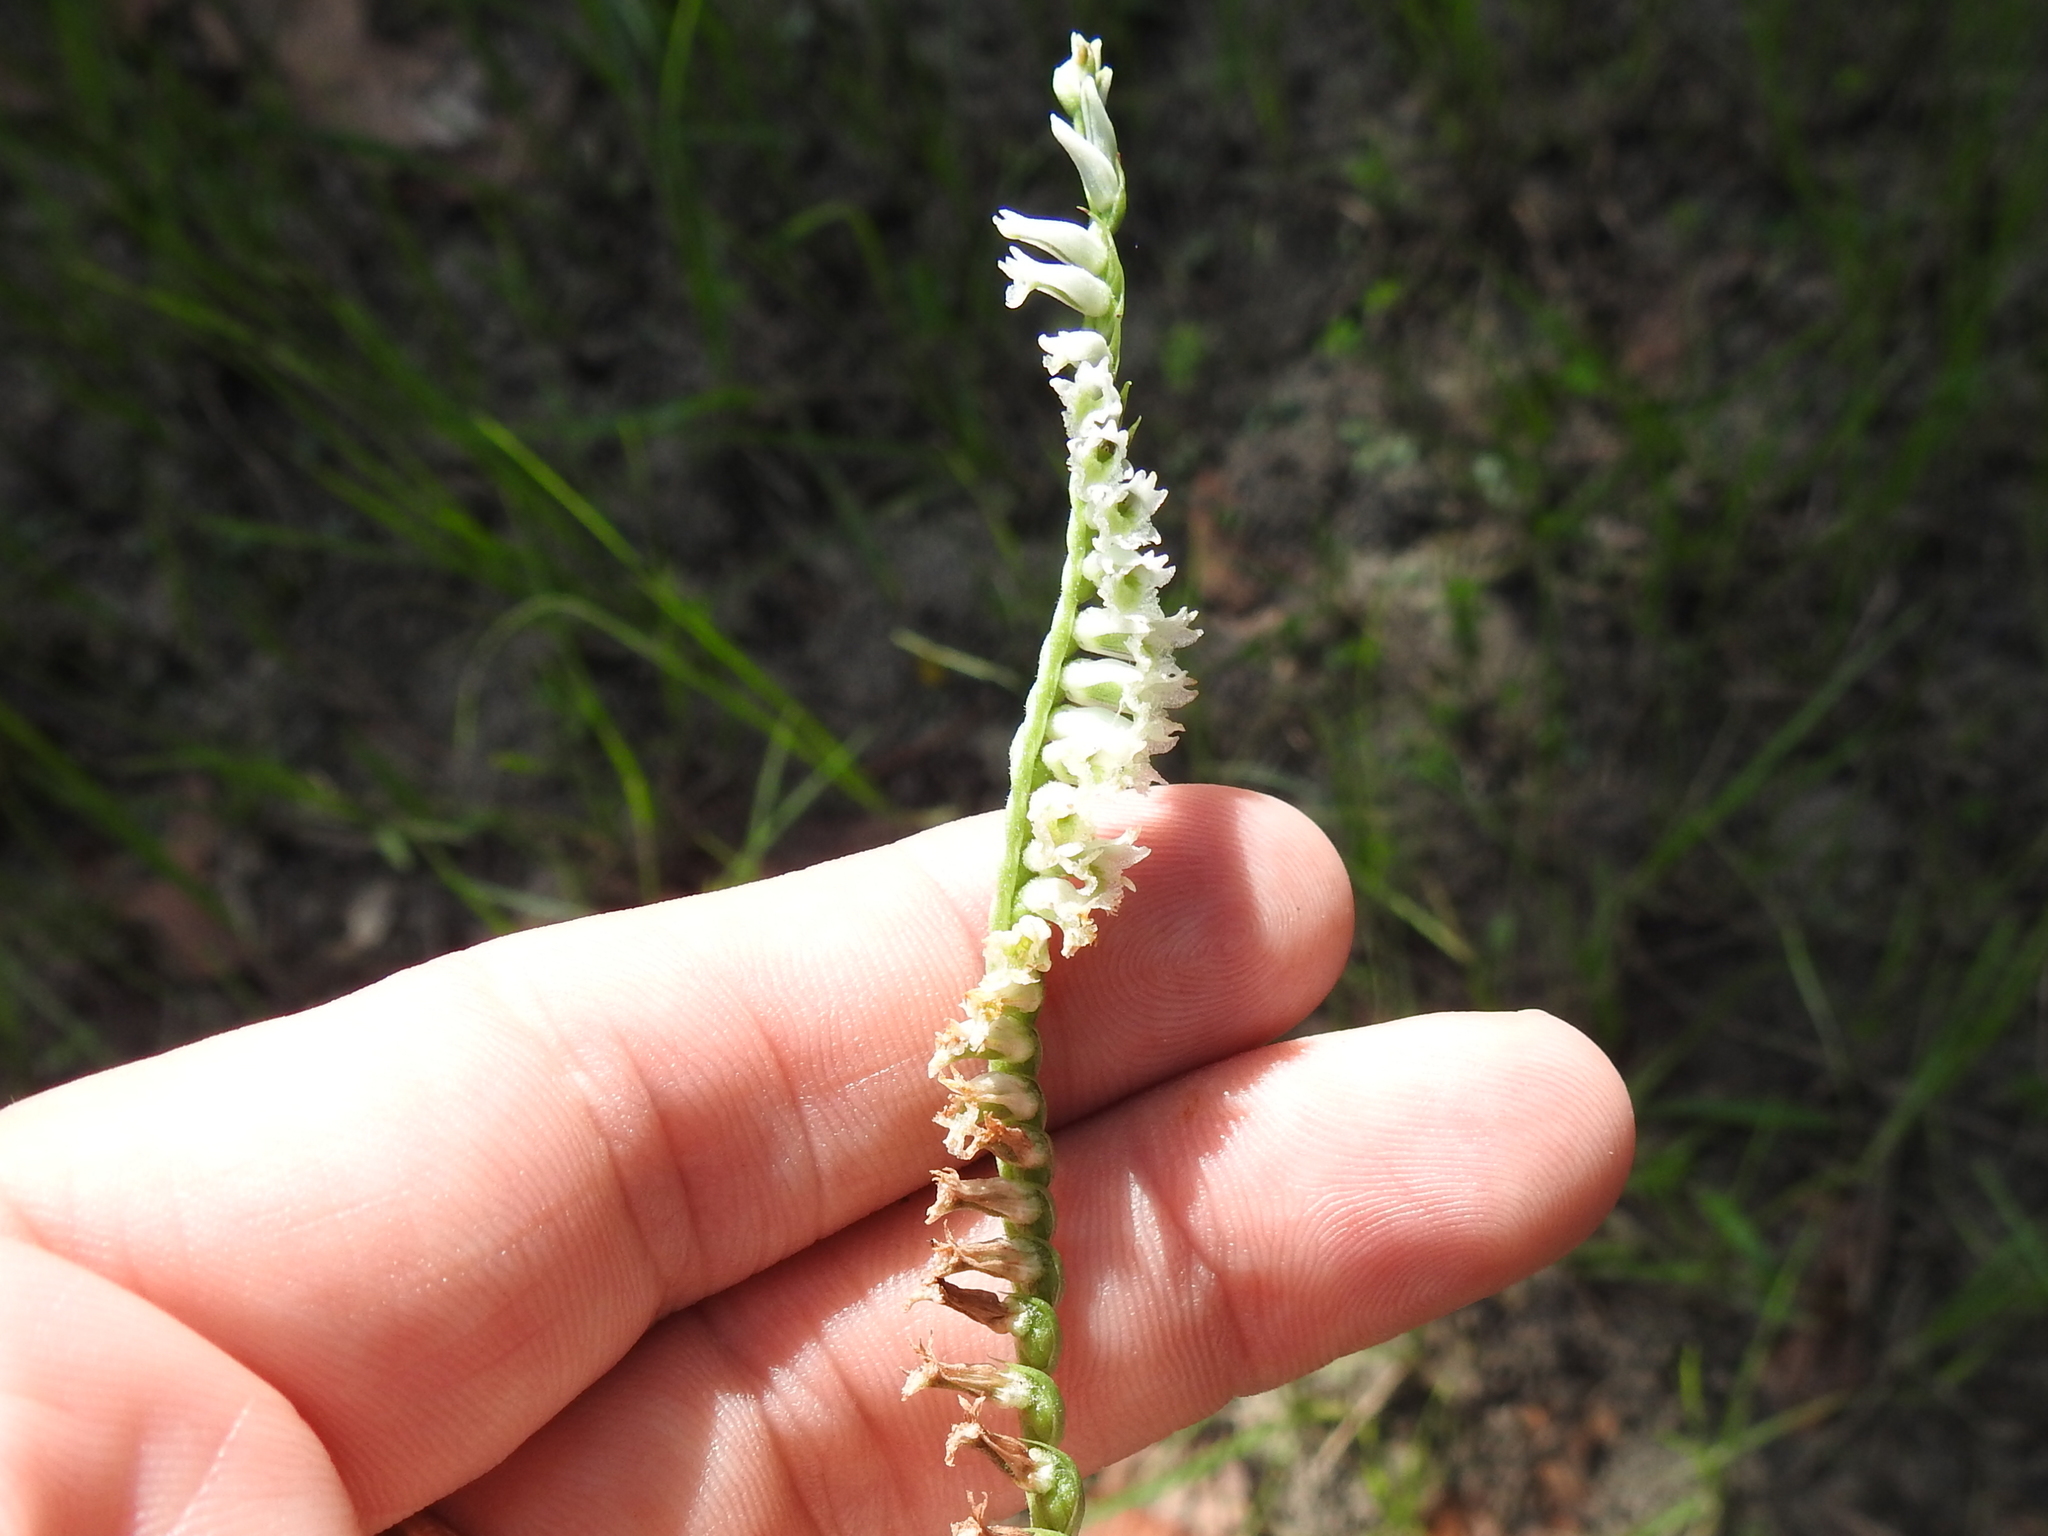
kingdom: Plantae
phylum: Tracheophyta
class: Liliopsida
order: Asparagales
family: Orchidaceae
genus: Spiranthes
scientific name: Spiranthes lacera
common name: Northern slender ladies'-tresses
